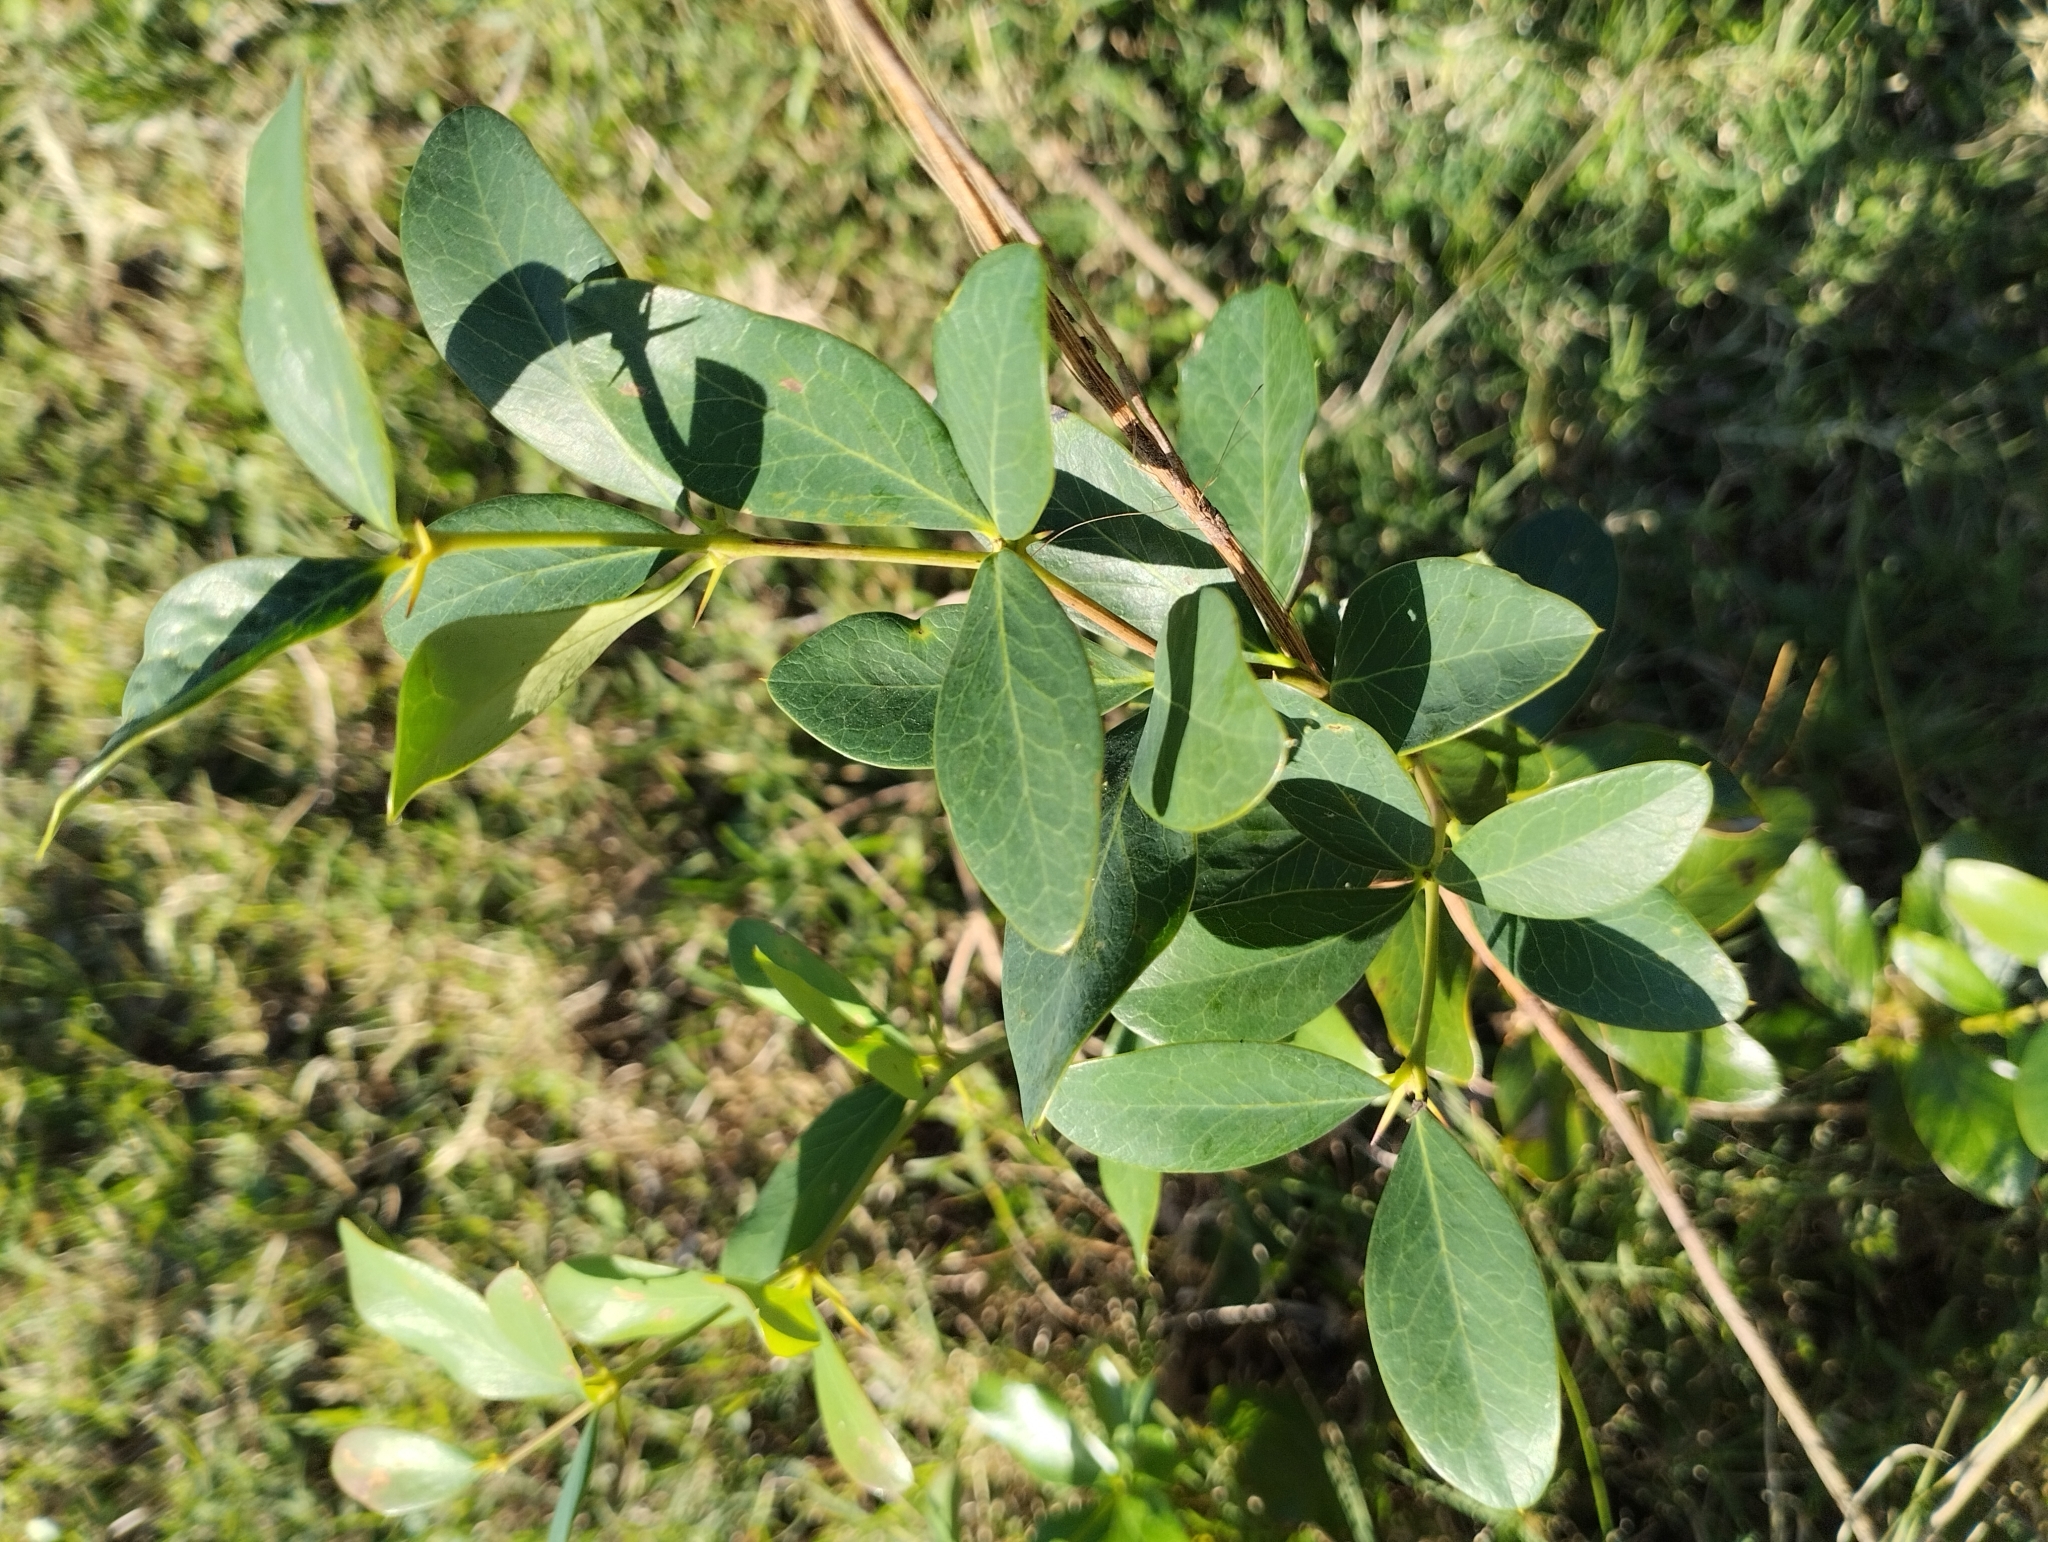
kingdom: Plantae
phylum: Tracheophyta
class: Magnoliopsida
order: Ranunculales
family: Berberidaceae
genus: Berberis
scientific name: Berberis laurina
